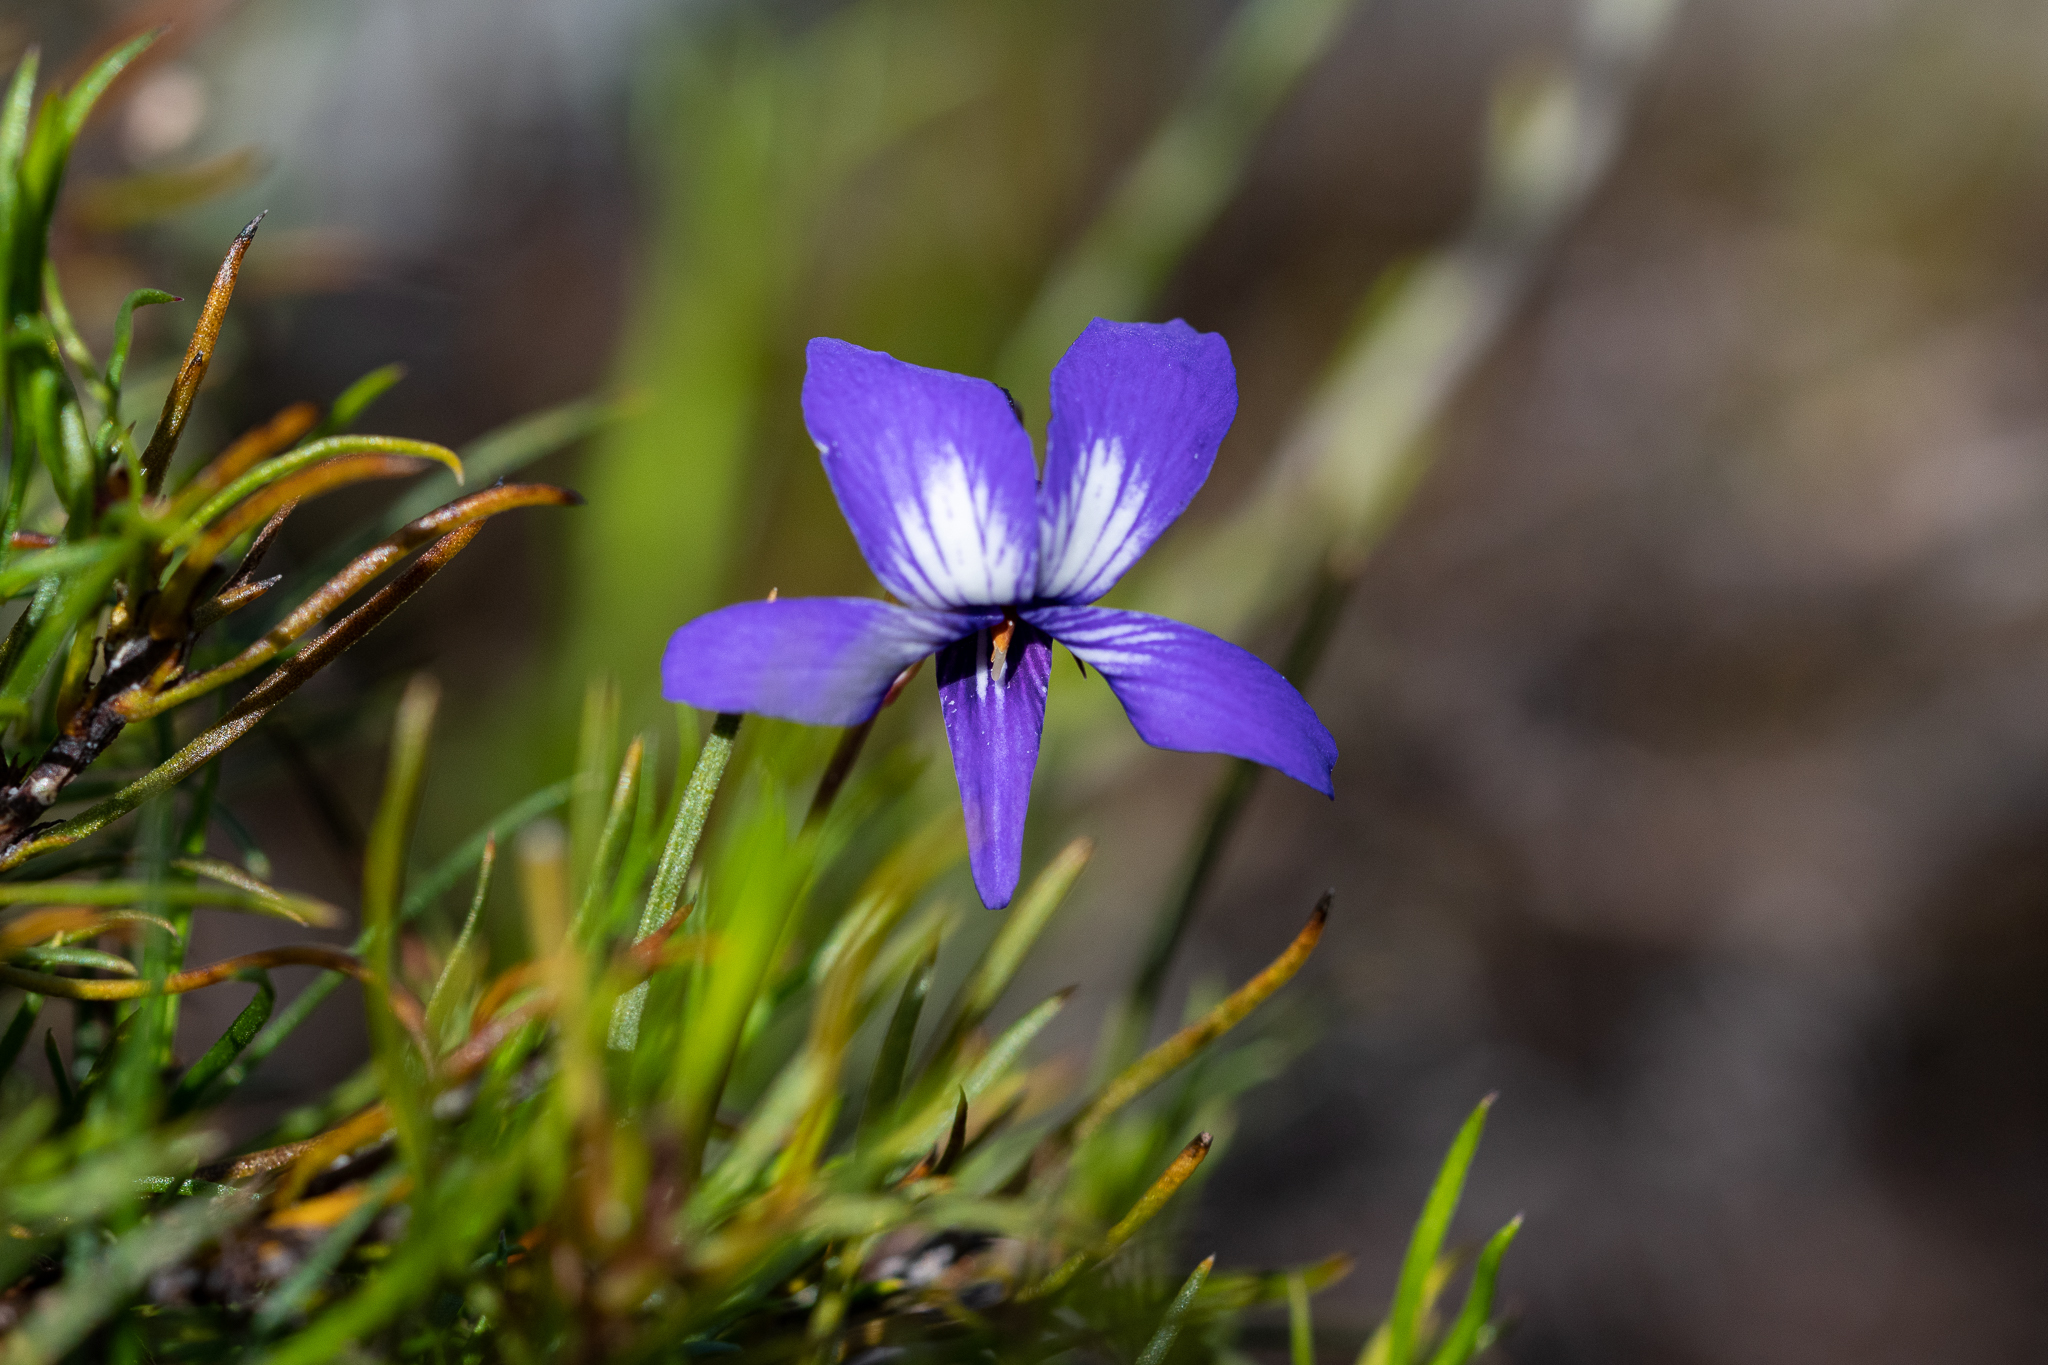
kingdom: Plantae
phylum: Tracheophyta
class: Magnoliopsida
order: Malpighiales
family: Violaceae
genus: Viola
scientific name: Viola decumbens
